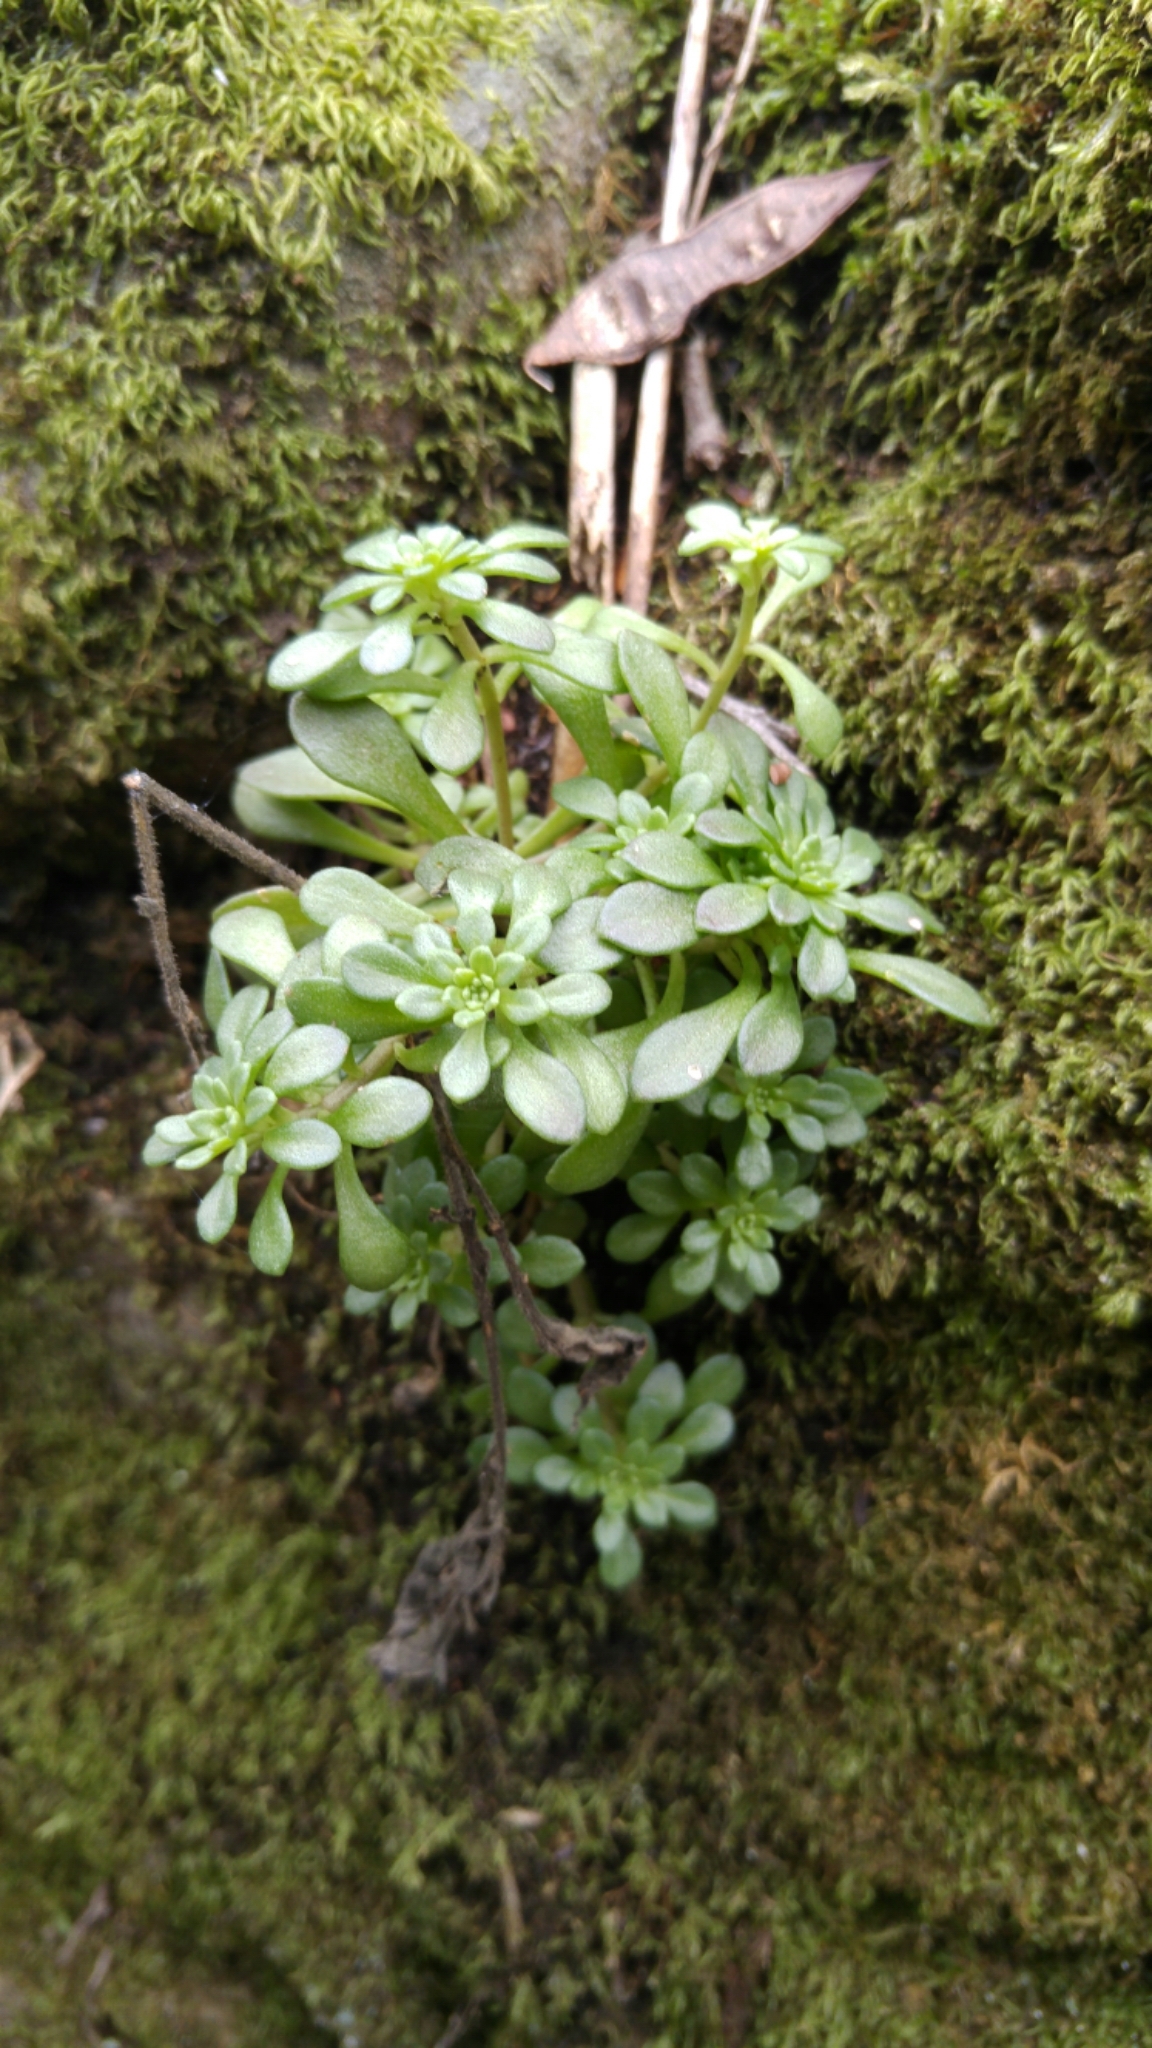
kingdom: Plantae
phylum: Tracheophyta
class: Magnoliopsida
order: Saxifragales
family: Crassulaceae
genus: Sedum
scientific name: Sedum cepaea
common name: Pink stonecrop
